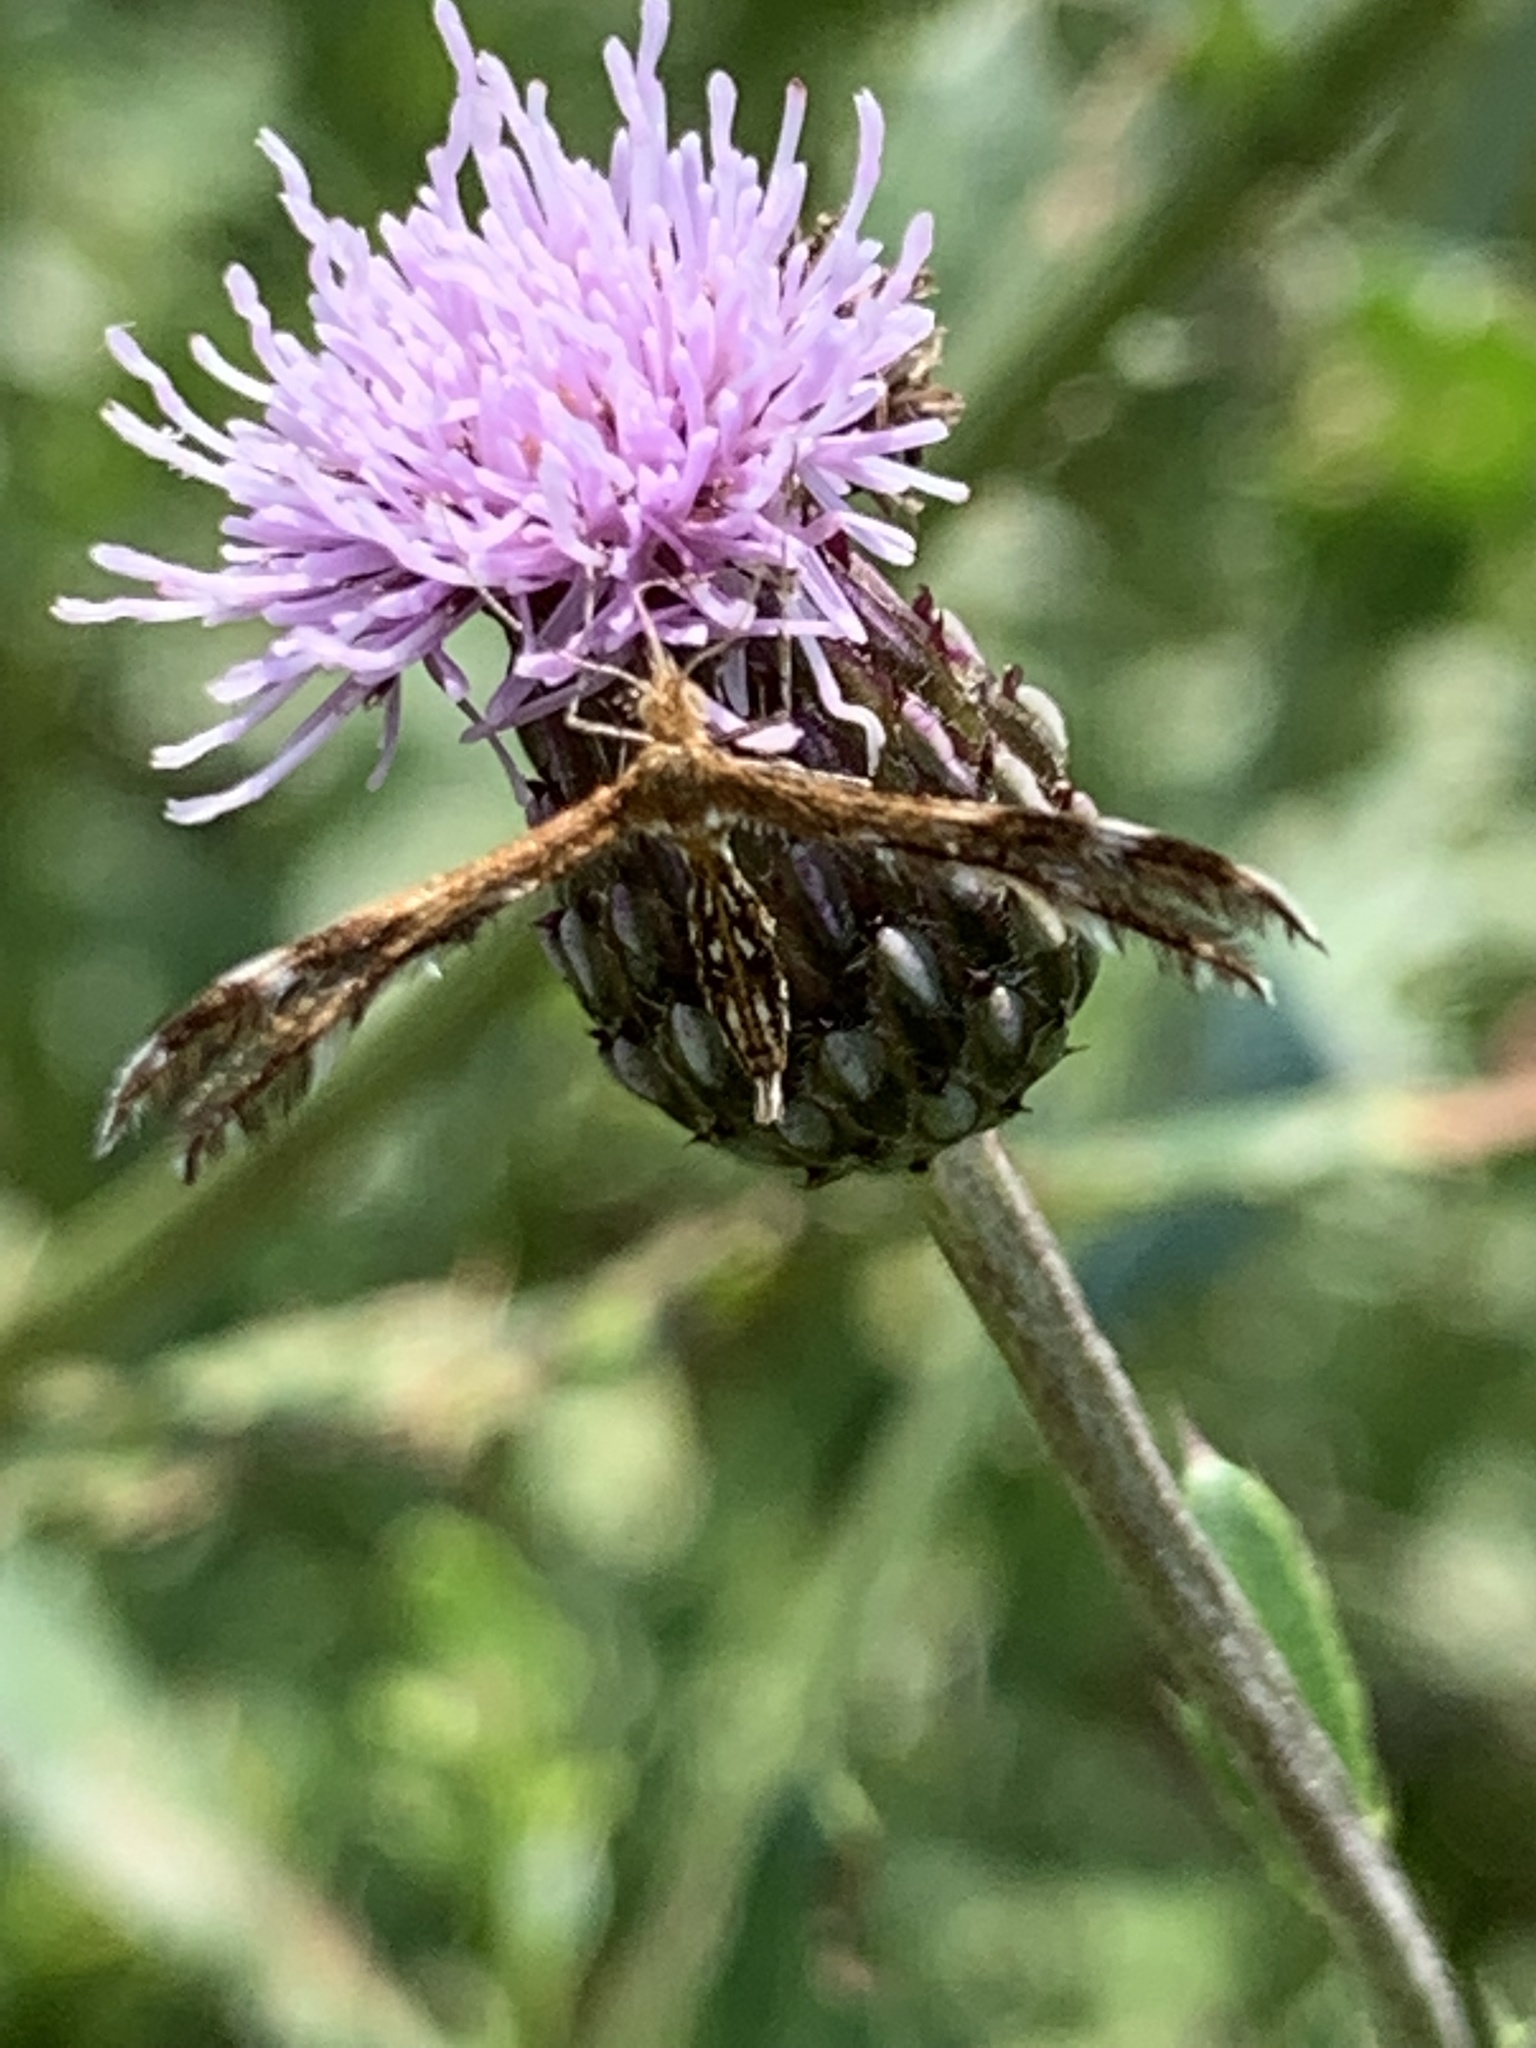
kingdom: Animalia
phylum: Arthropoda
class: Insecta
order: Lepidoptera
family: Pterophoridae
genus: Dejongia
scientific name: Dejongia lobidactylus
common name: Lobed plume moth
